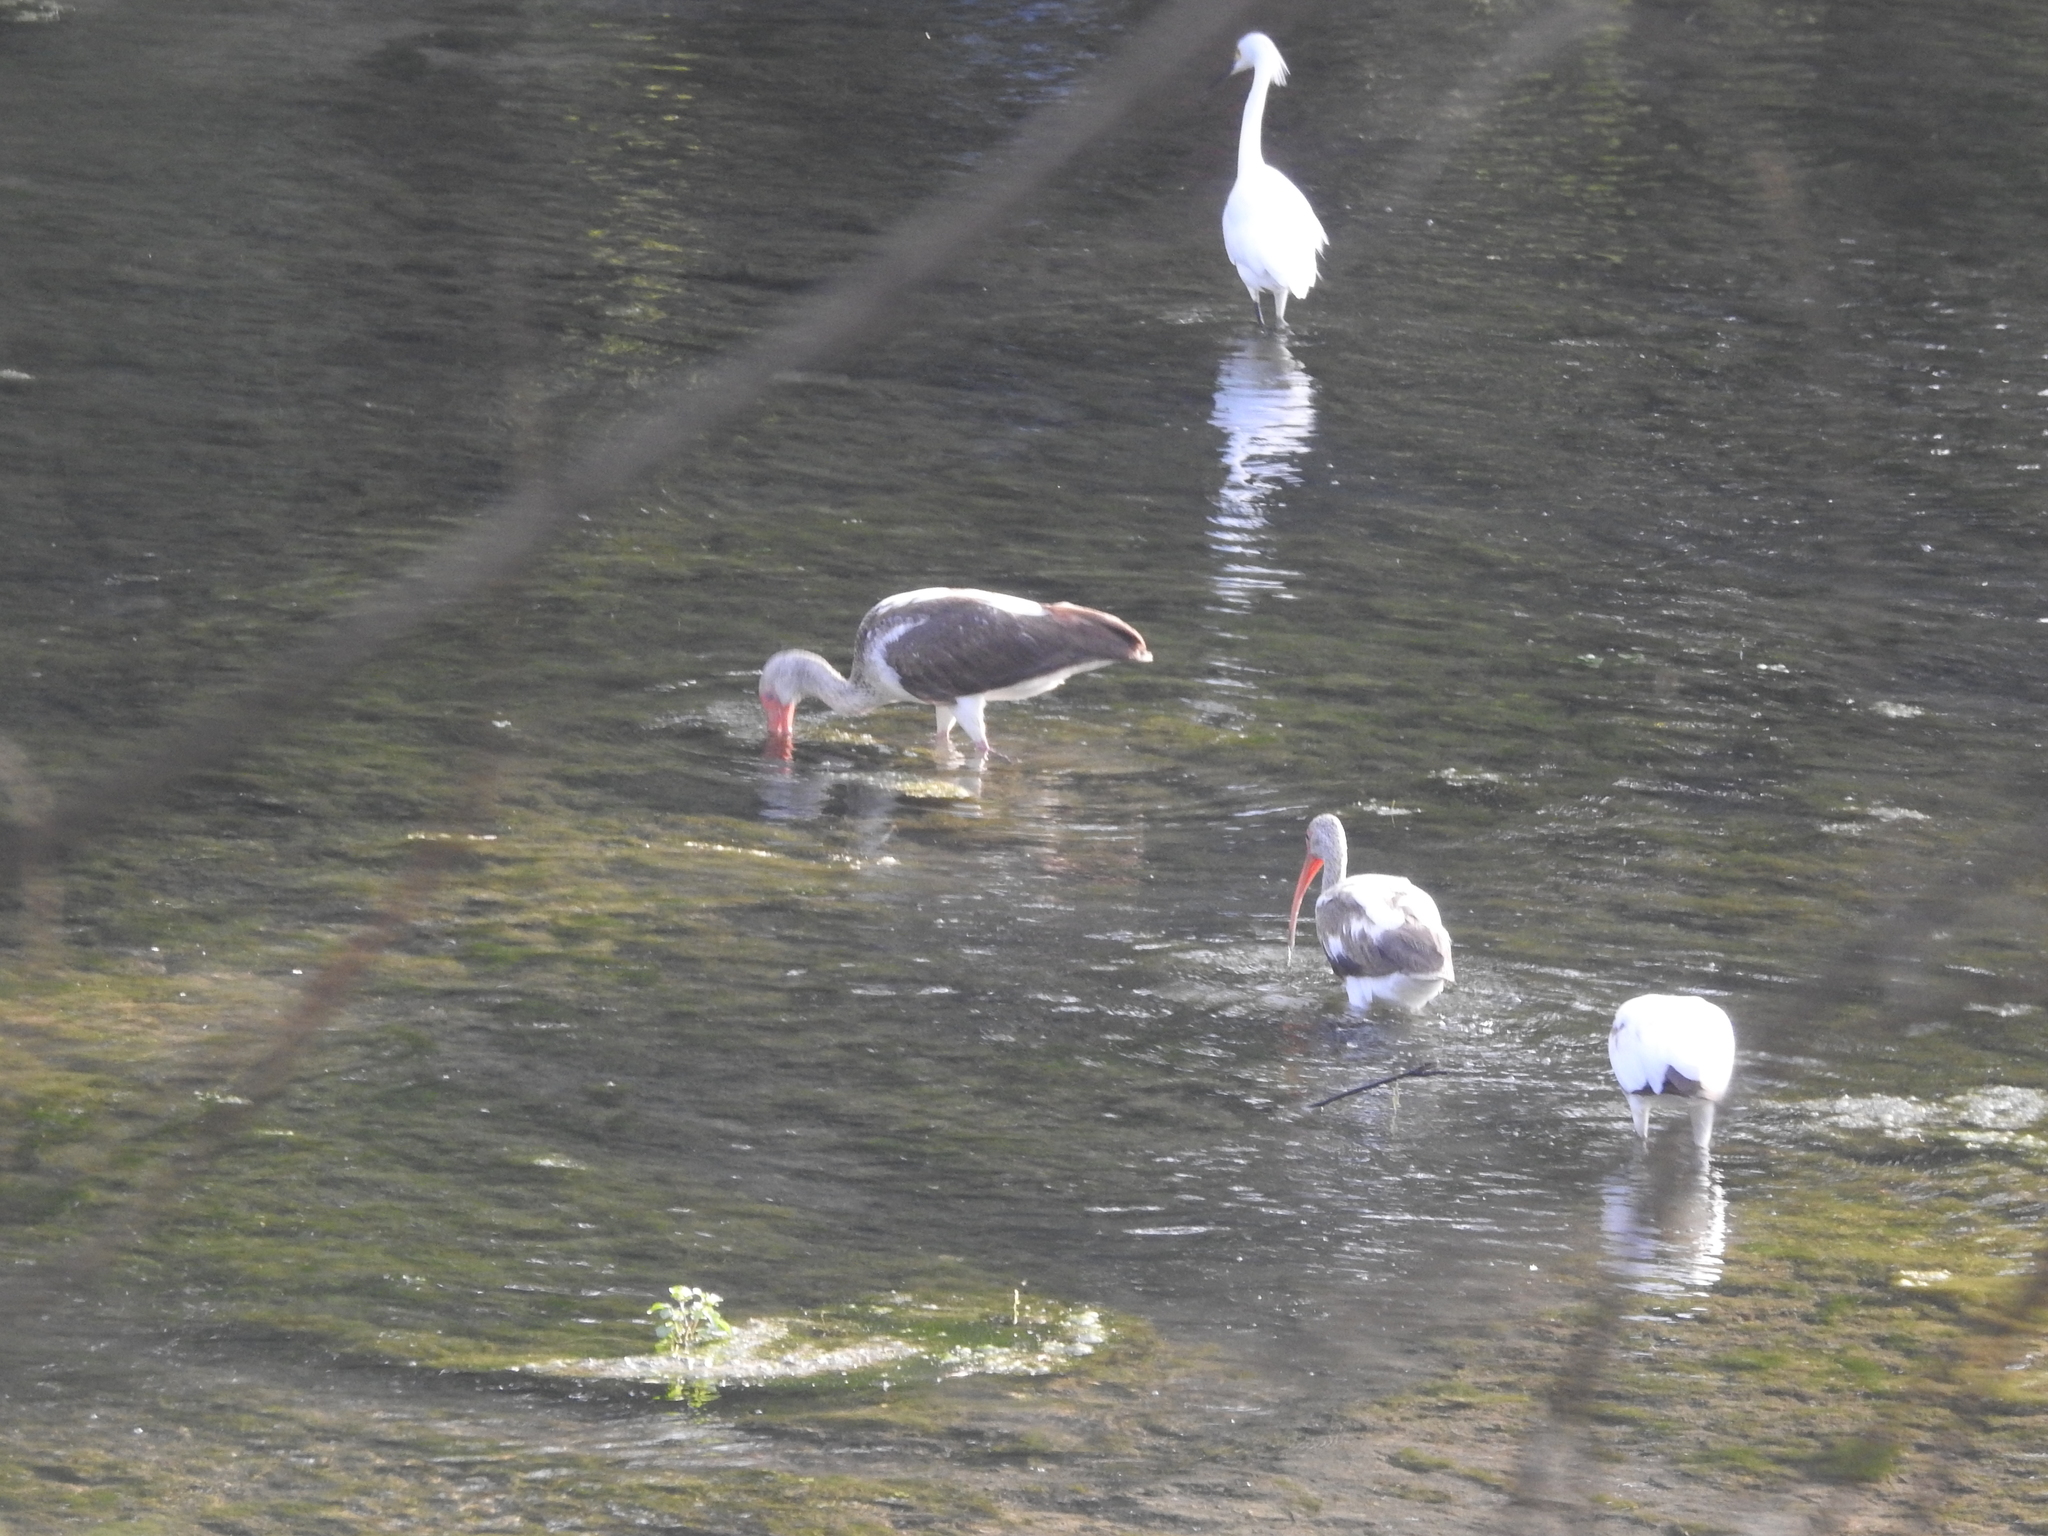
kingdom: Animalia
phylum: Chordata
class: Aves
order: Pelecaniformes
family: Threskiornithidae
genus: Eudocimus
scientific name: Eudocimus albus
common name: White ibis
